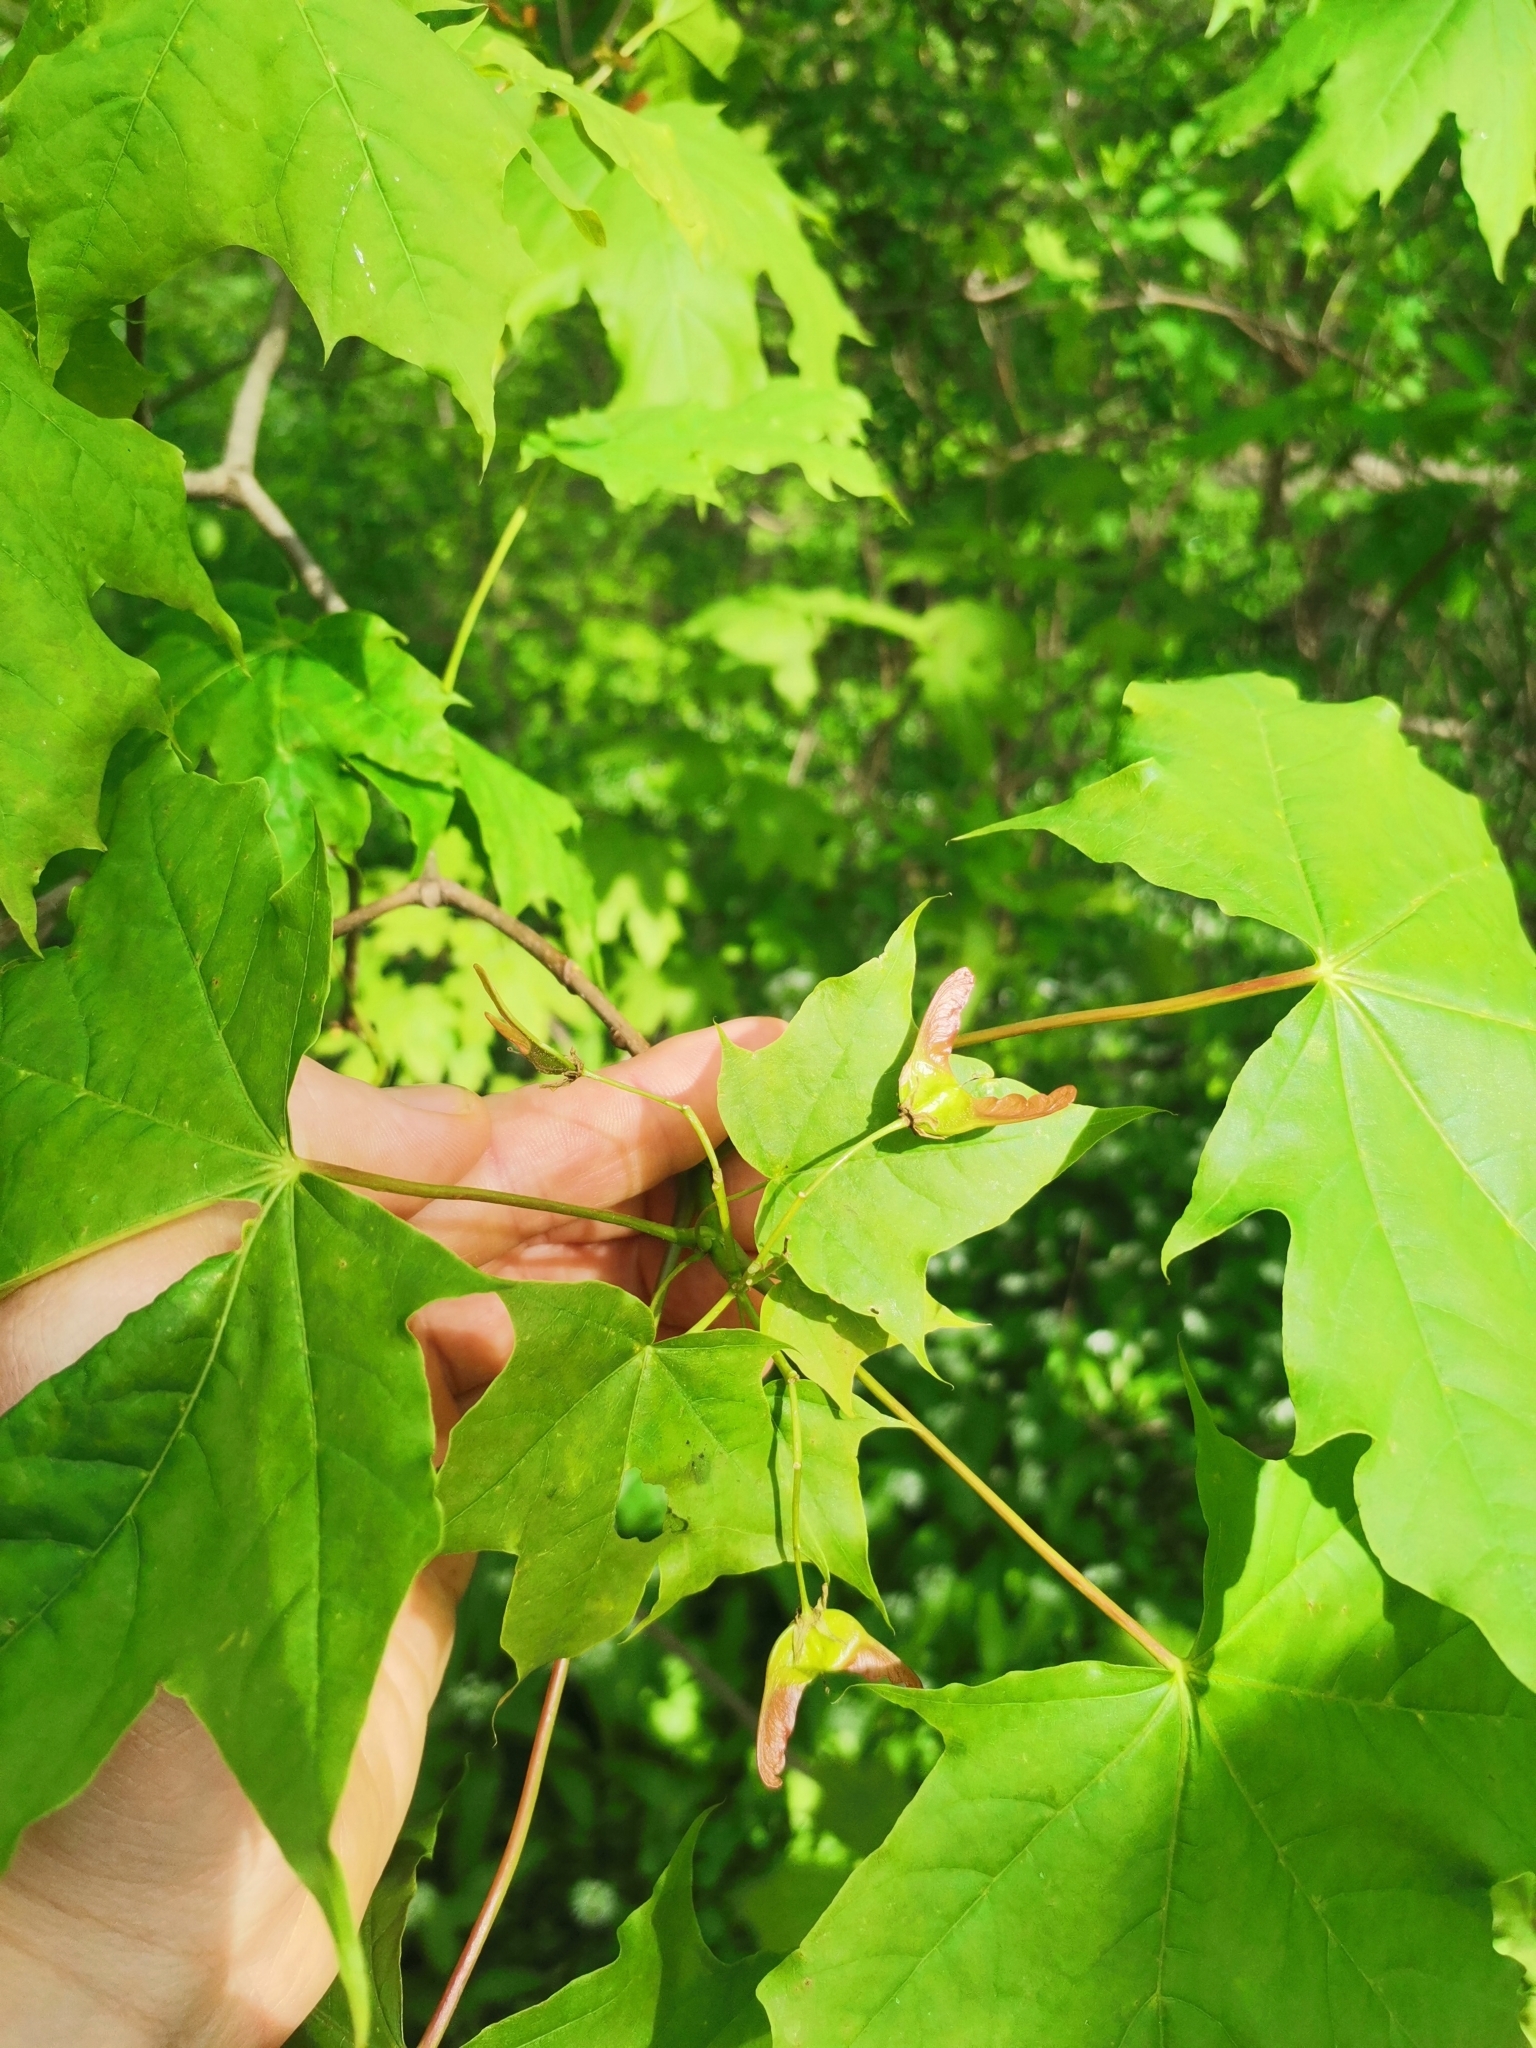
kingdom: Plantae
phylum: Tracheophyta
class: Magnoliopsida
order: Sapindales
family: Sapindaceae
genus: Acer
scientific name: Acer platanoides
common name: Norway maple
